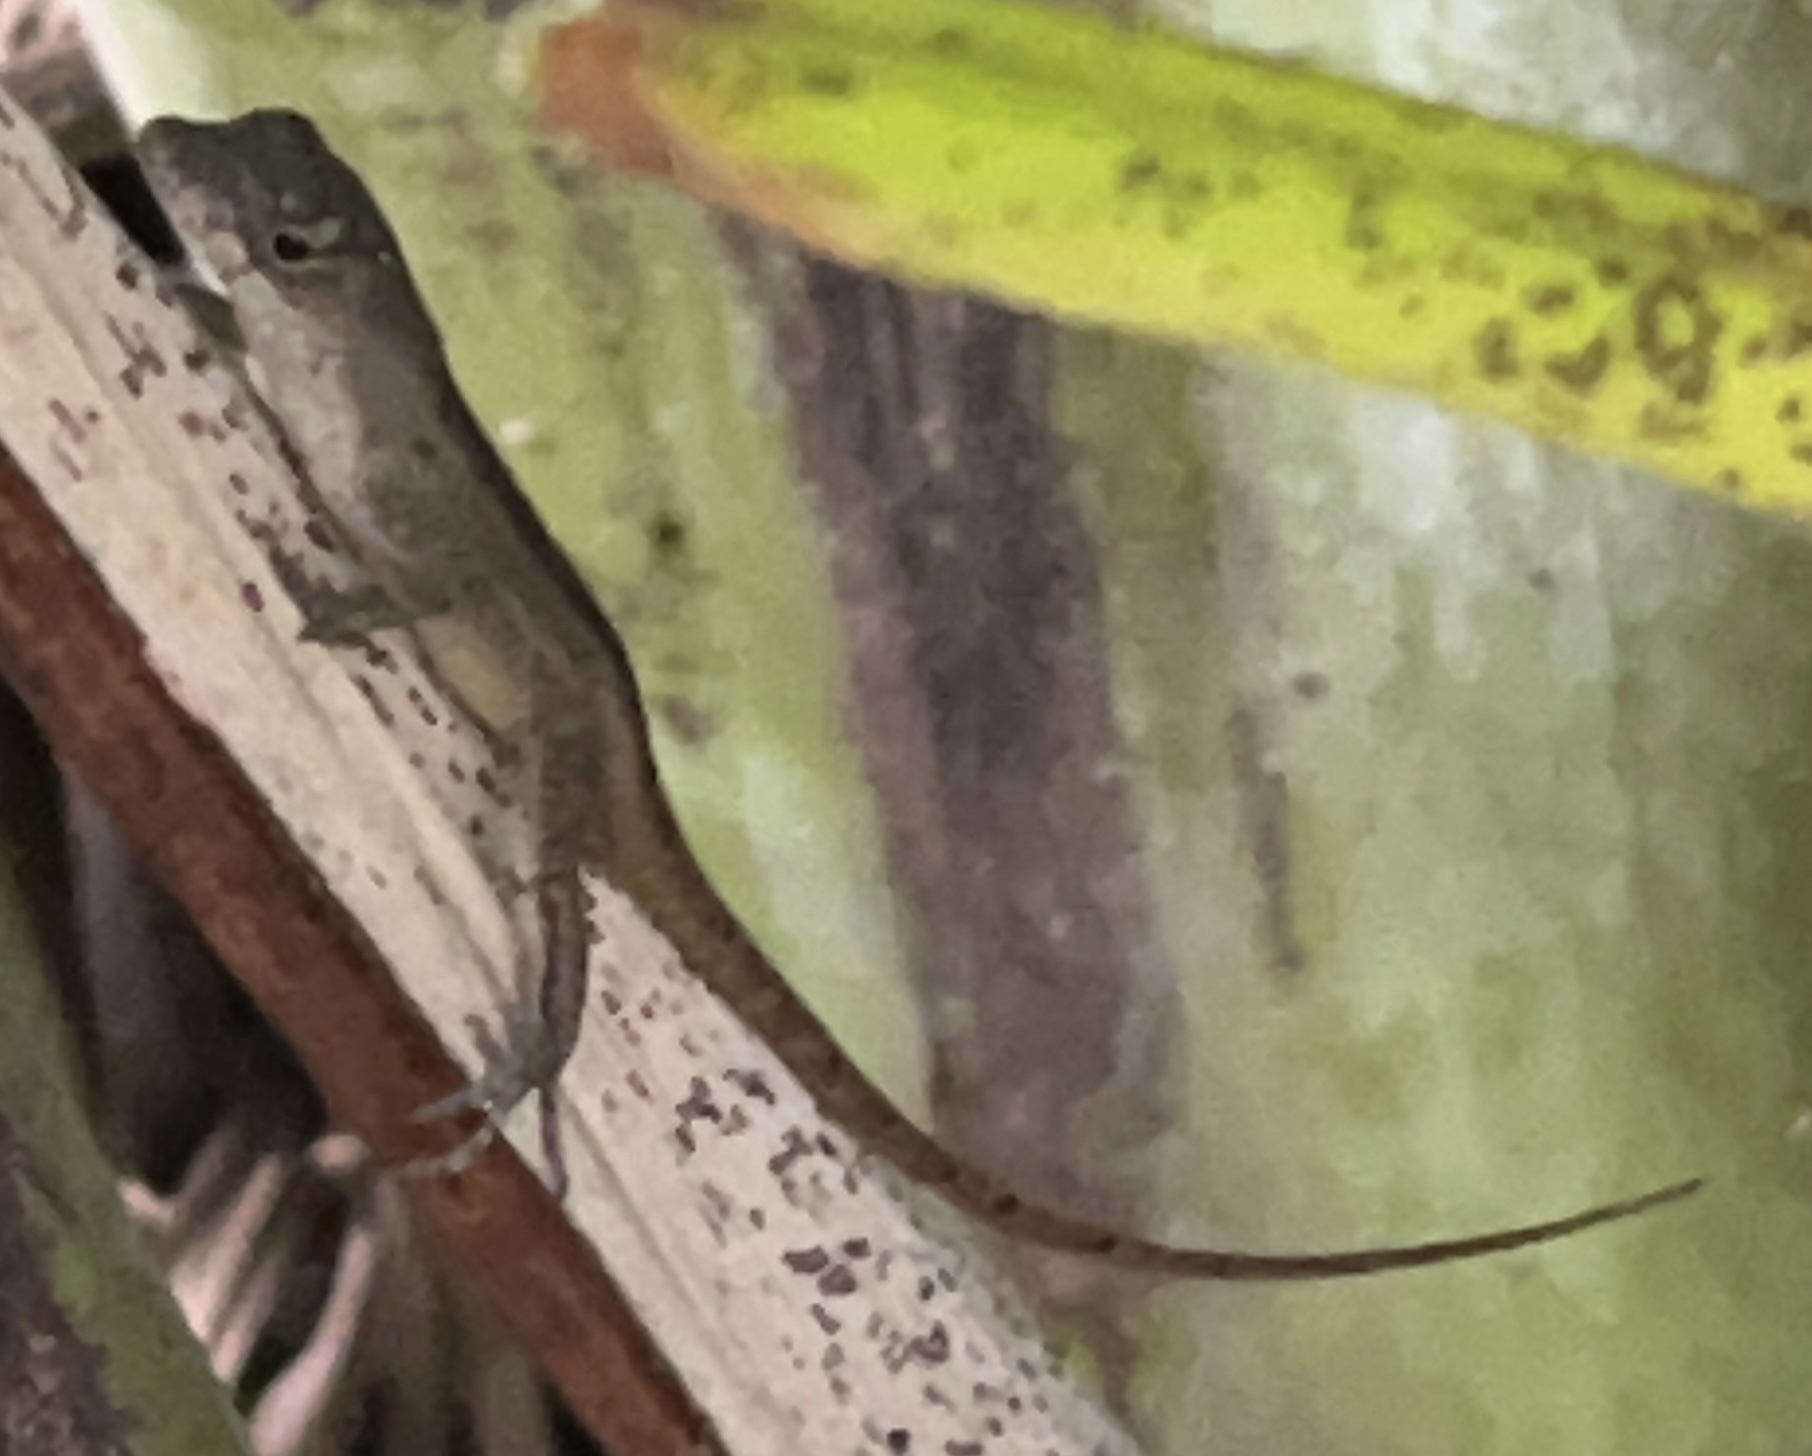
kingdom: Animalia
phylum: Chordata
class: Squamata
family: Dactyloidae
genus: Anolis
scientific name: Anolis sagrei
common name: Brown anole
